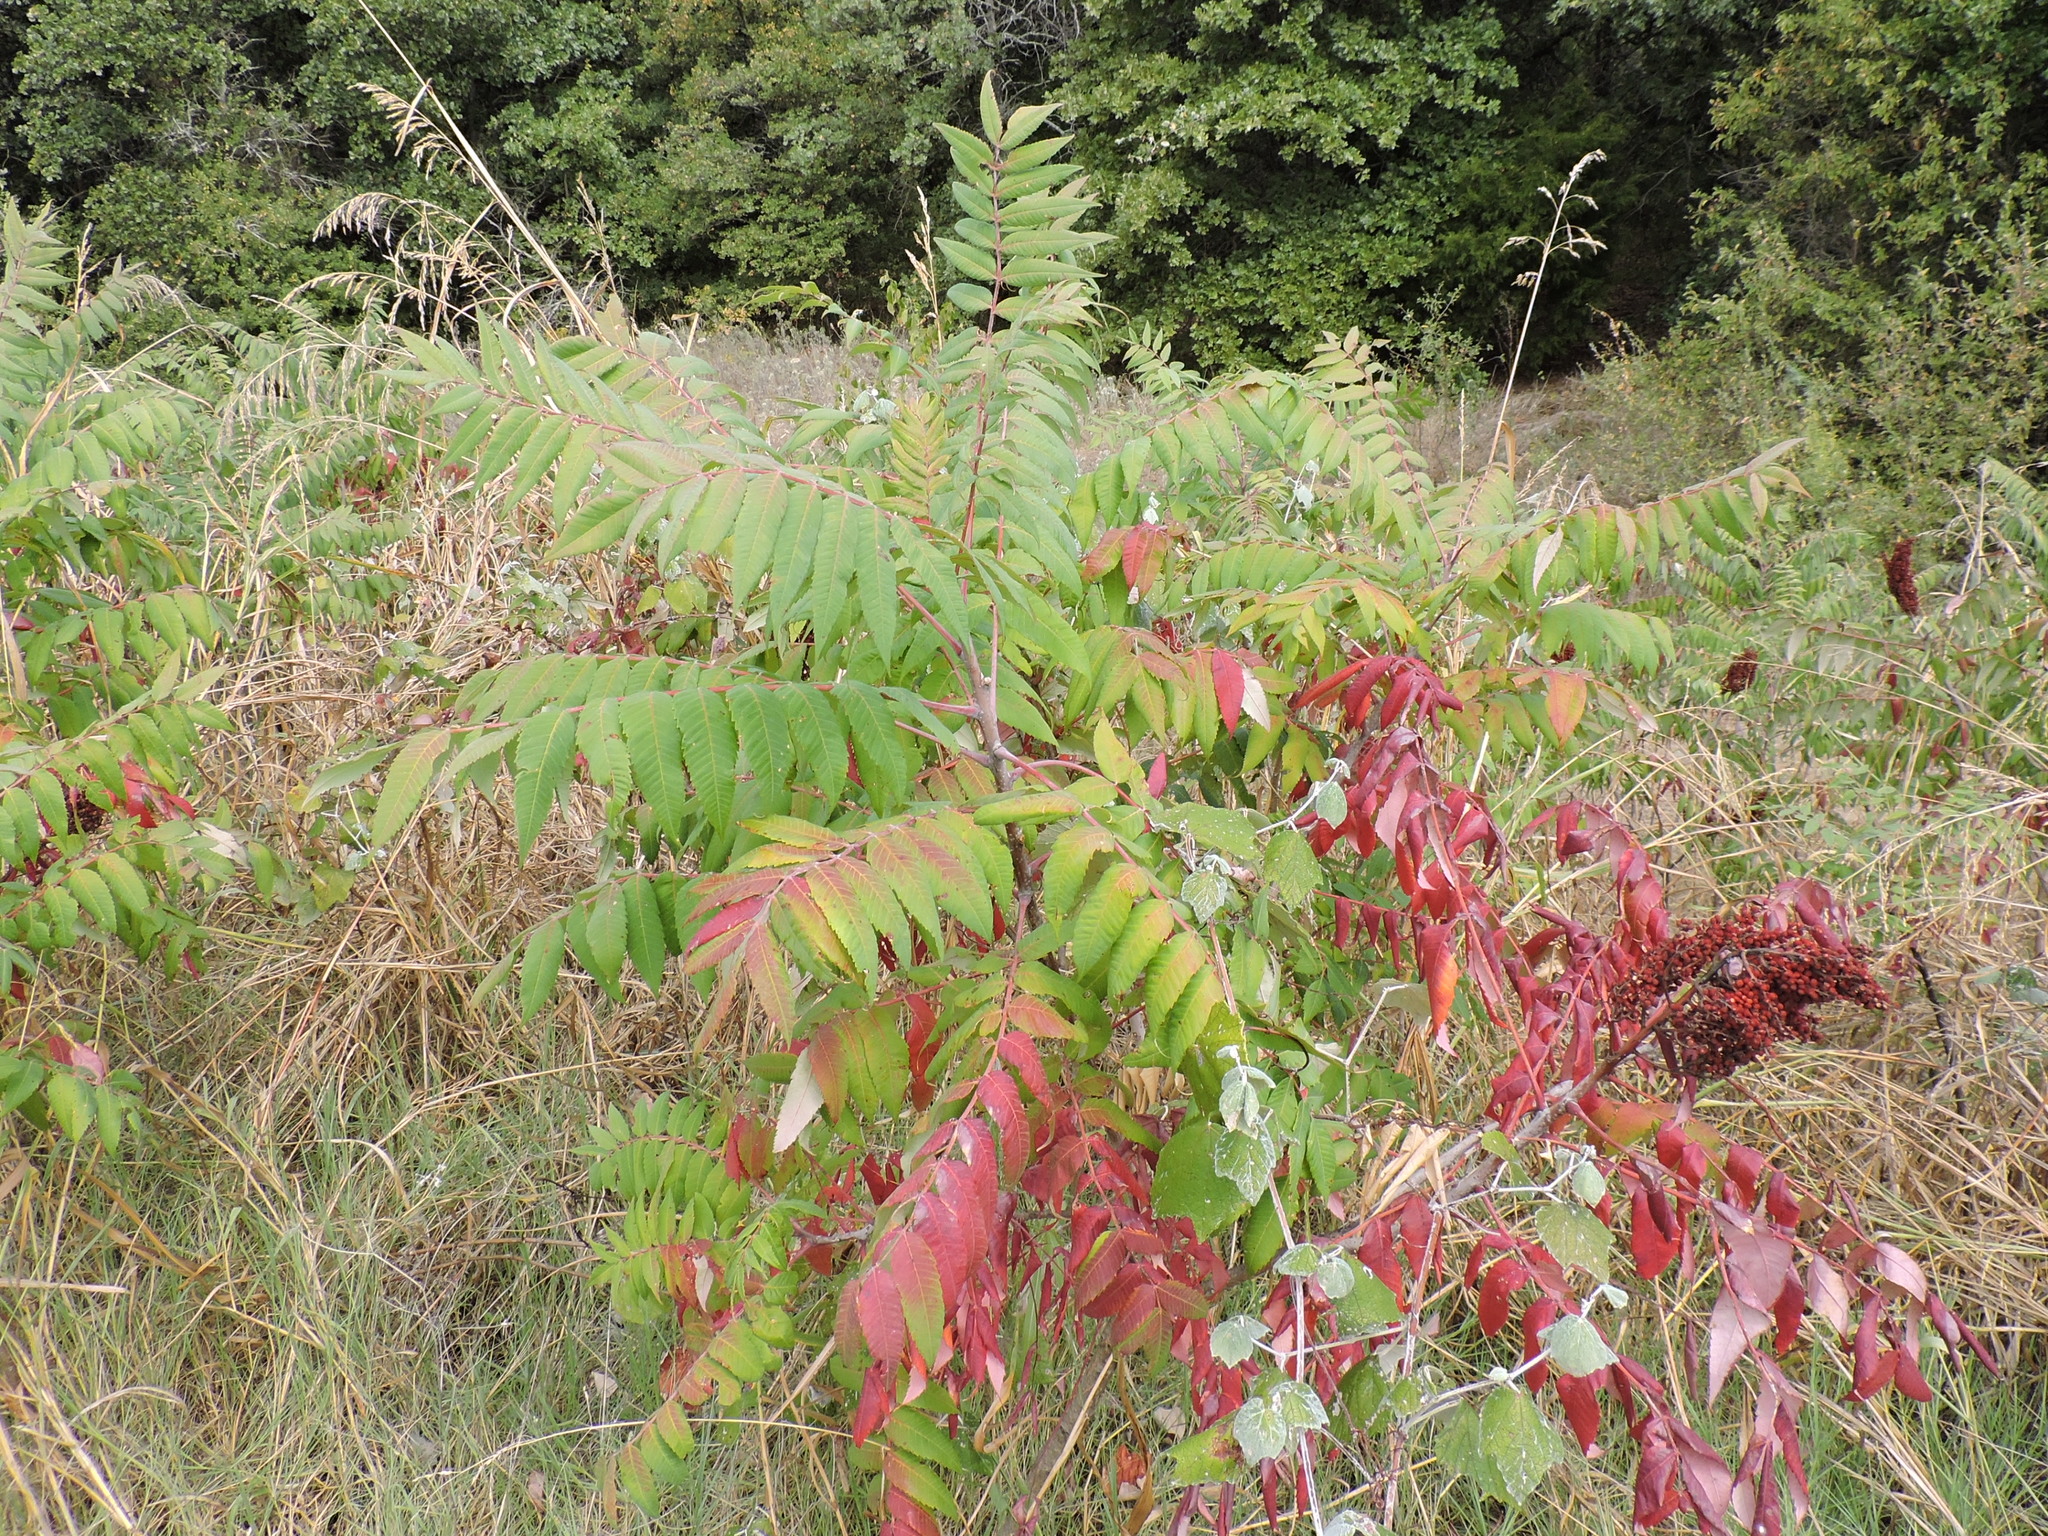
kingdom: Plantae
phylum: Tracheophyta
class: Magnoliopsida
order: Sapindales
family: Anacardiaceae
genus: Rhus
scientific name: Rhus glabra
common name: Scarlet sumac
